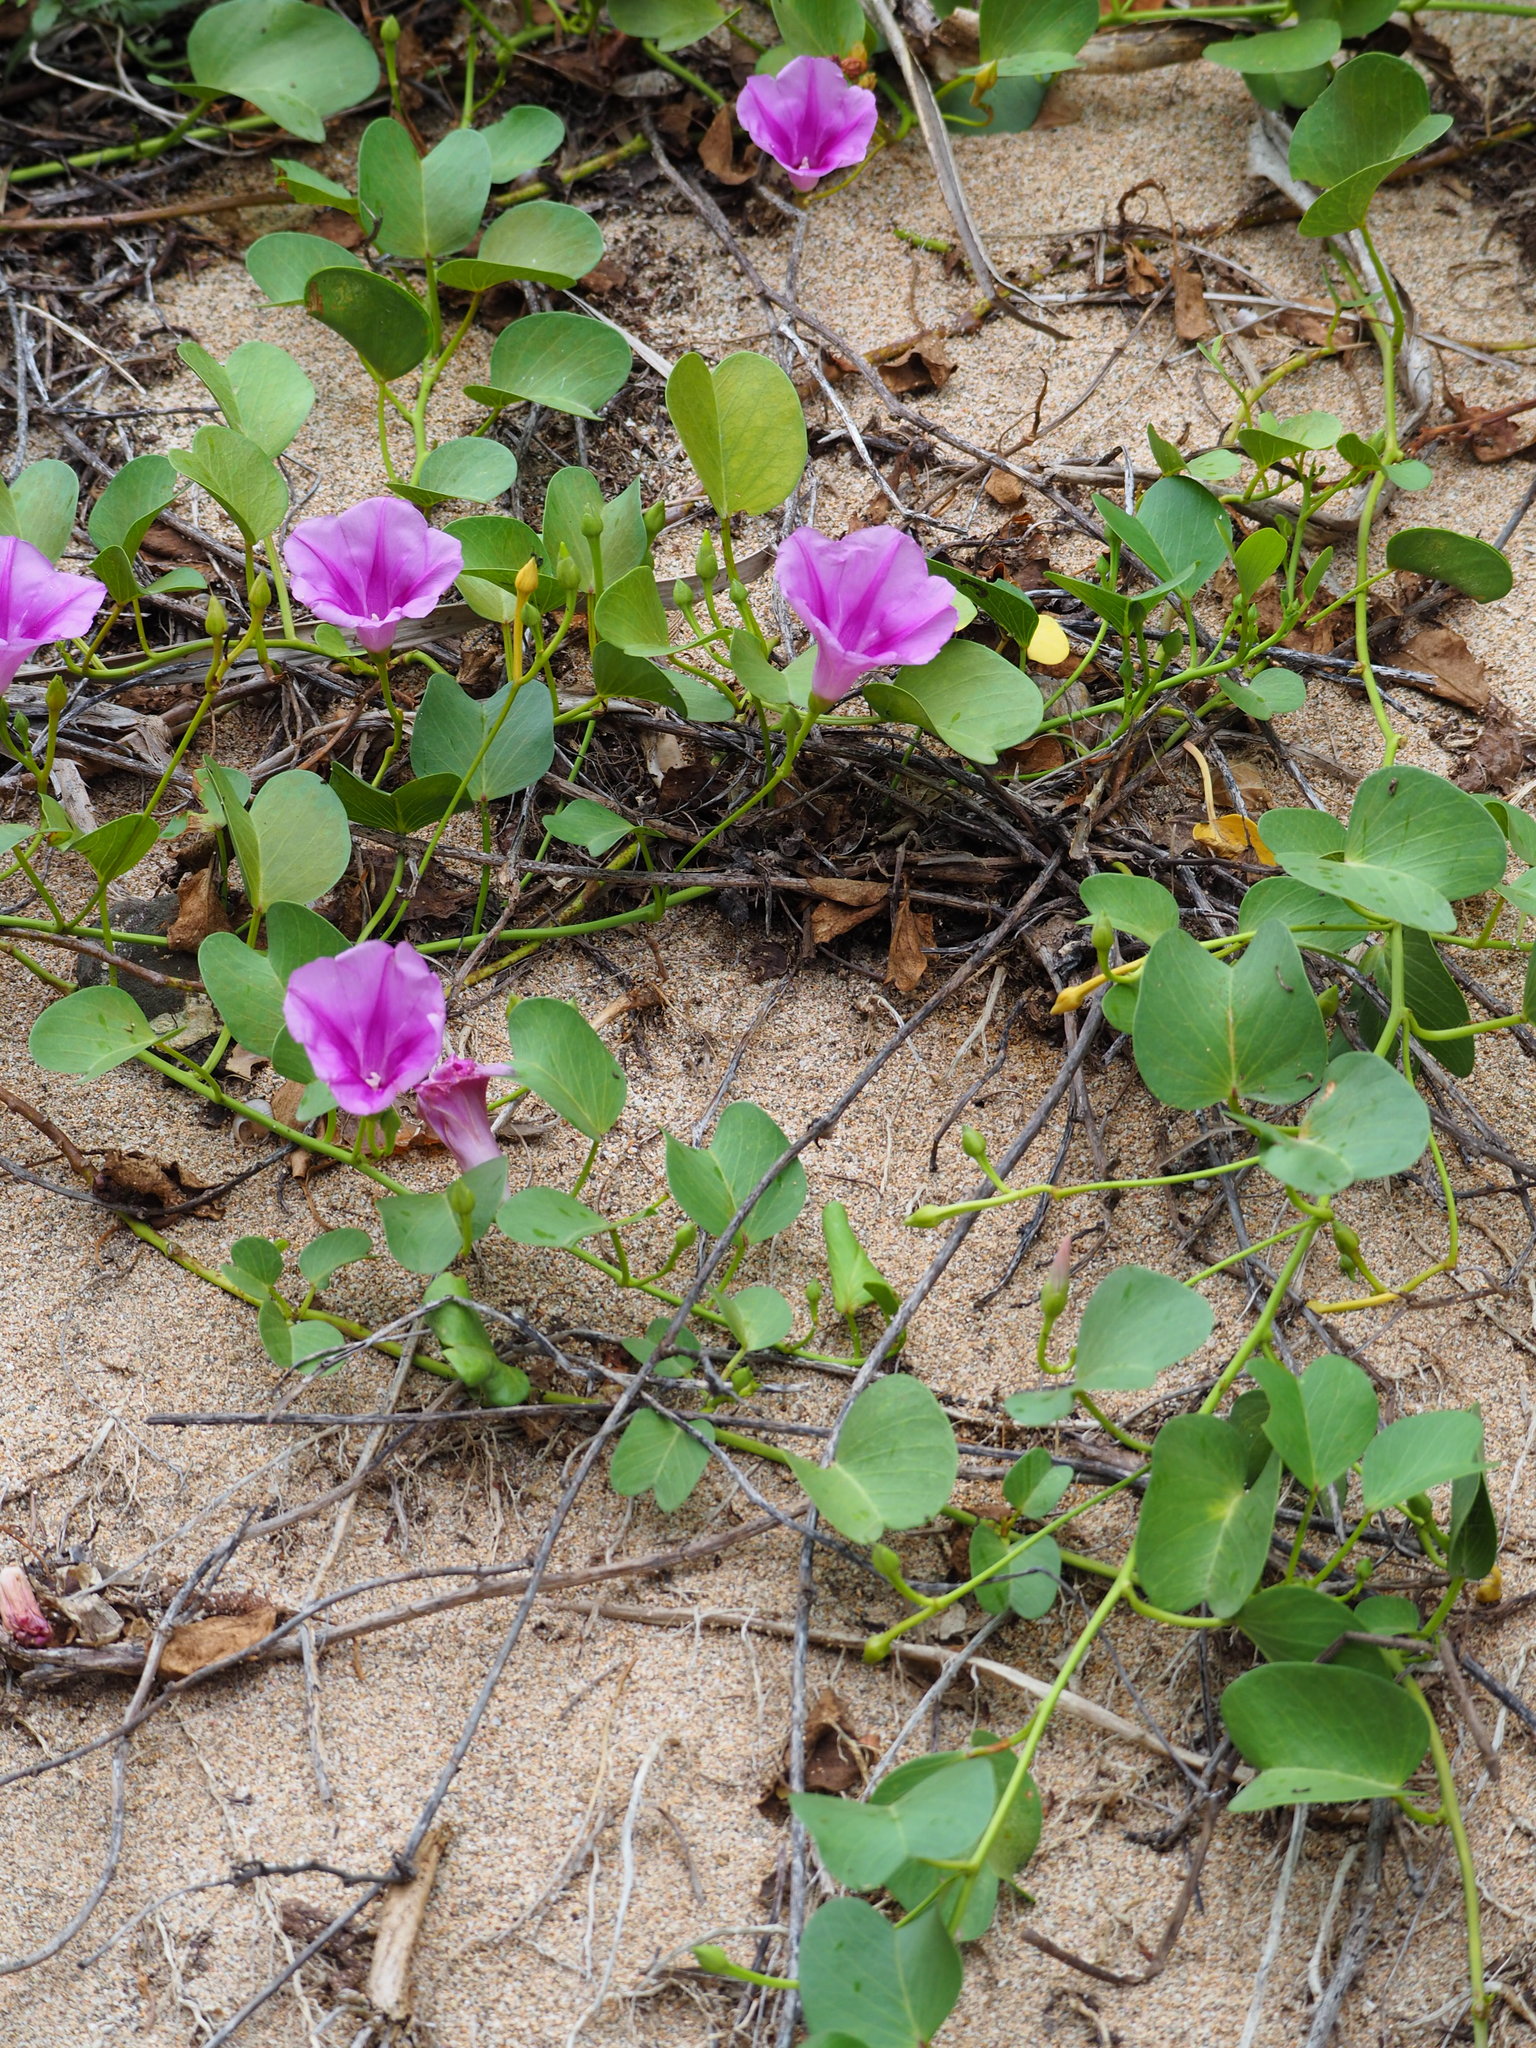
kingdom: Plantae
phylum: Tracheophyta
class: Magnoliopsida
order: Solanales
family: Convolvulaceae
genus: Ipomoea
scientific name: Ipomoea pes-caprae
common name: Beach morning glory
